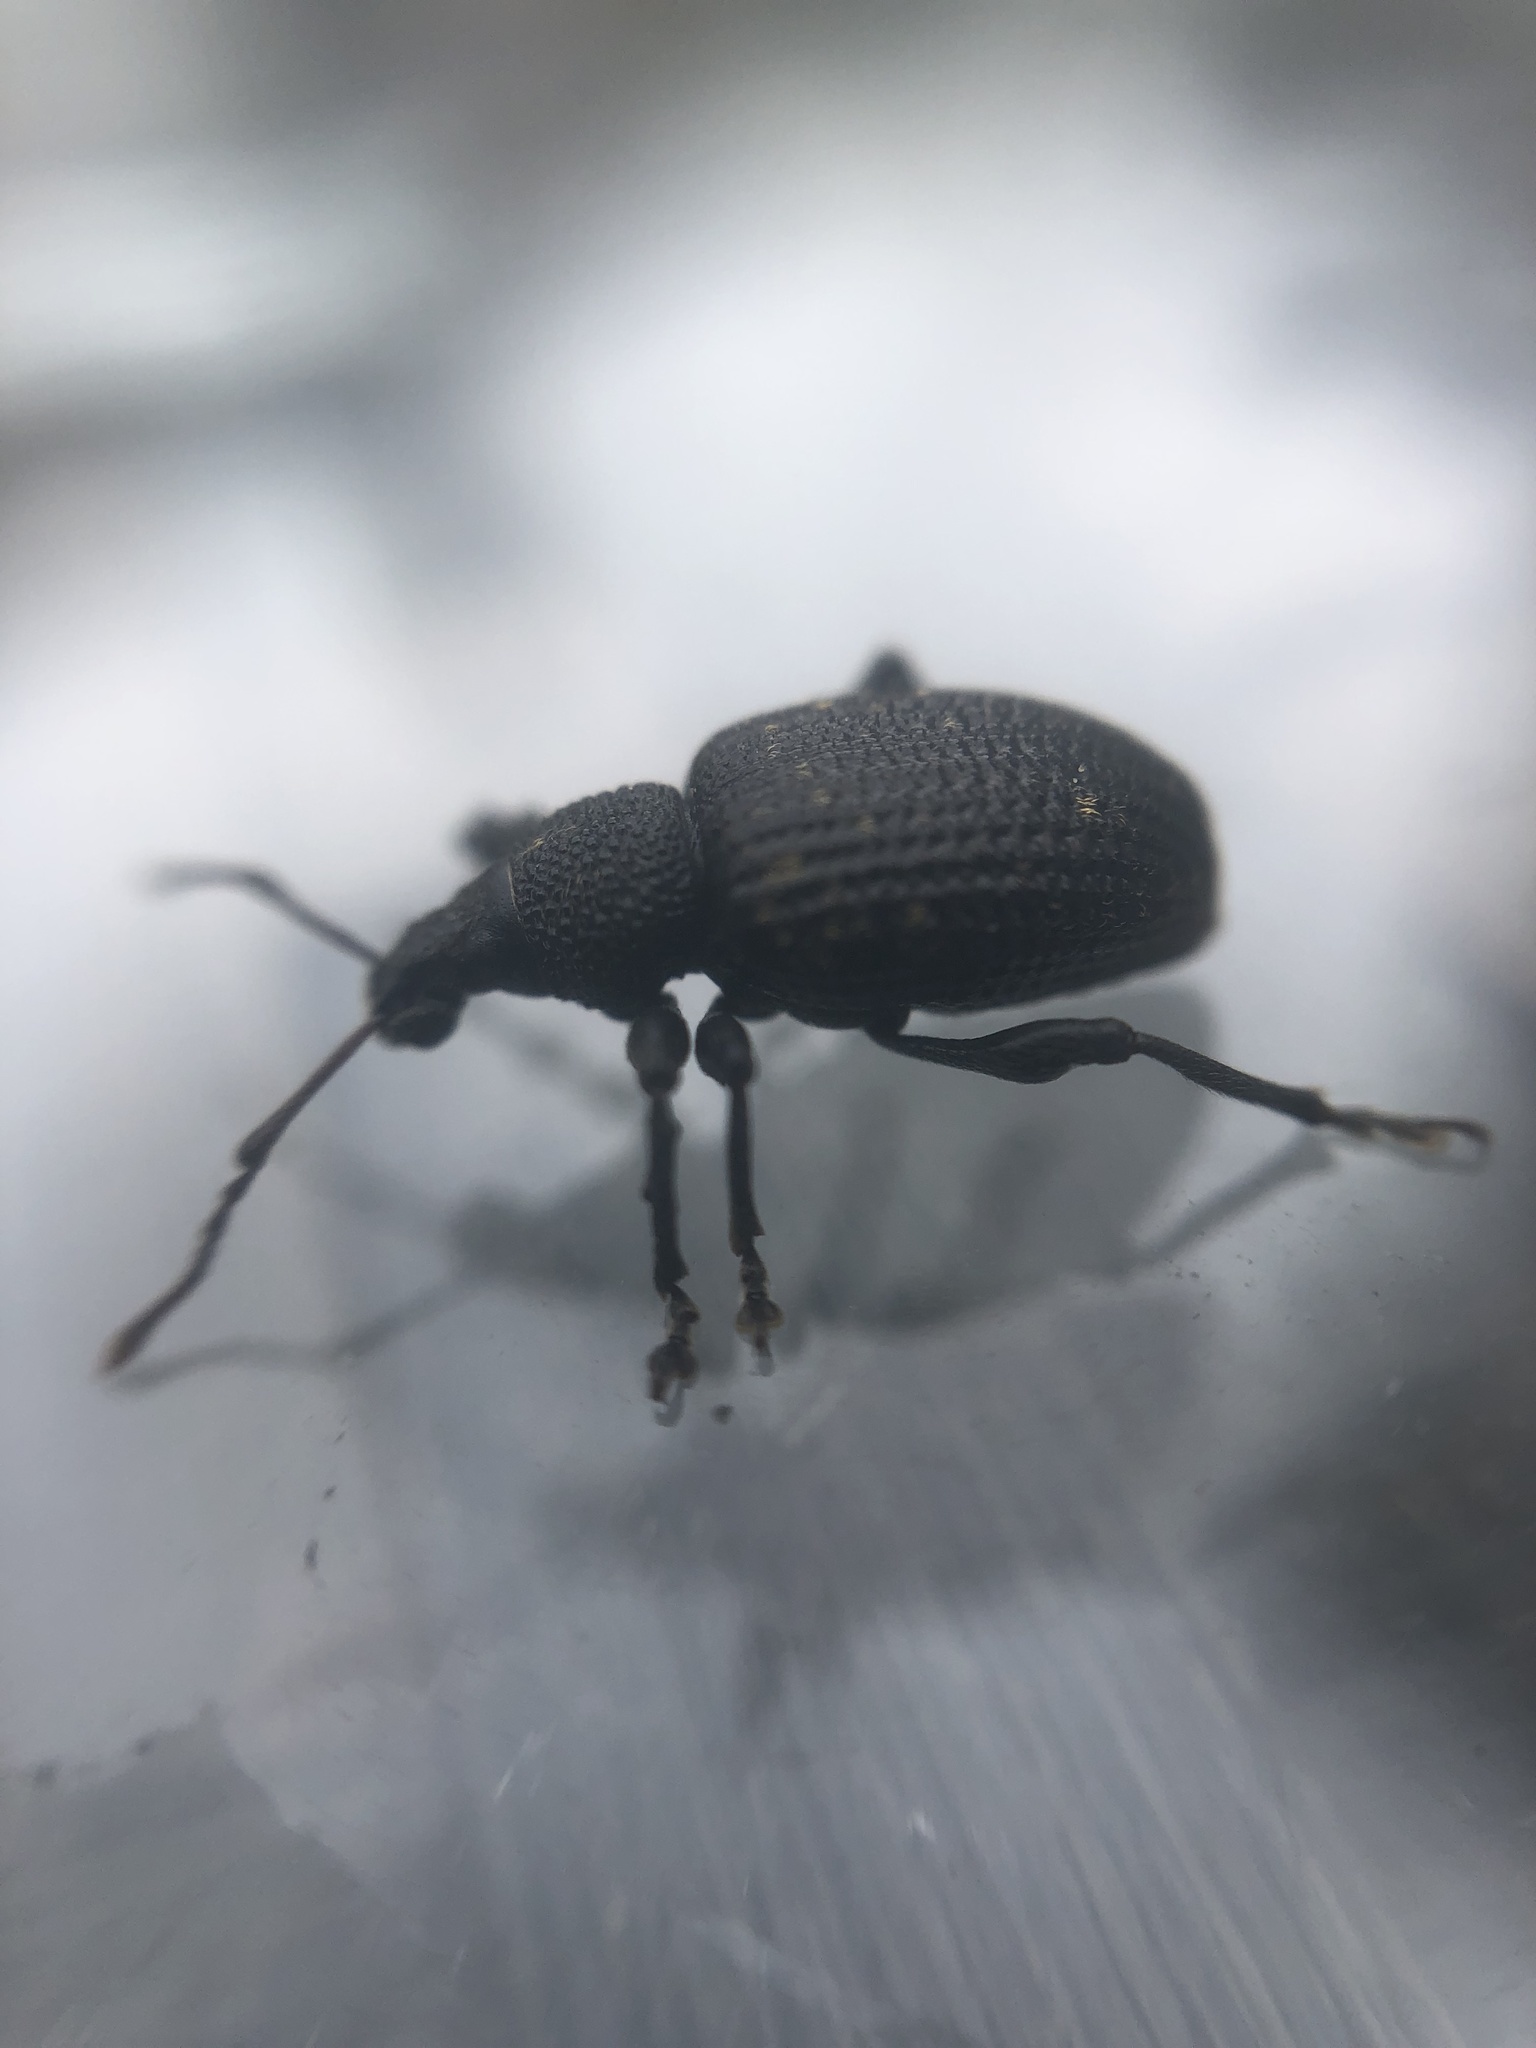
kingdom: Animalia
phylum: Arthropoda
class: Insecta
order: Coleoptera
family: Curculionidae
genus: Otiorhynchus
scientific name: Otiorhynchus sulcatus
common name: Black vine weevil
